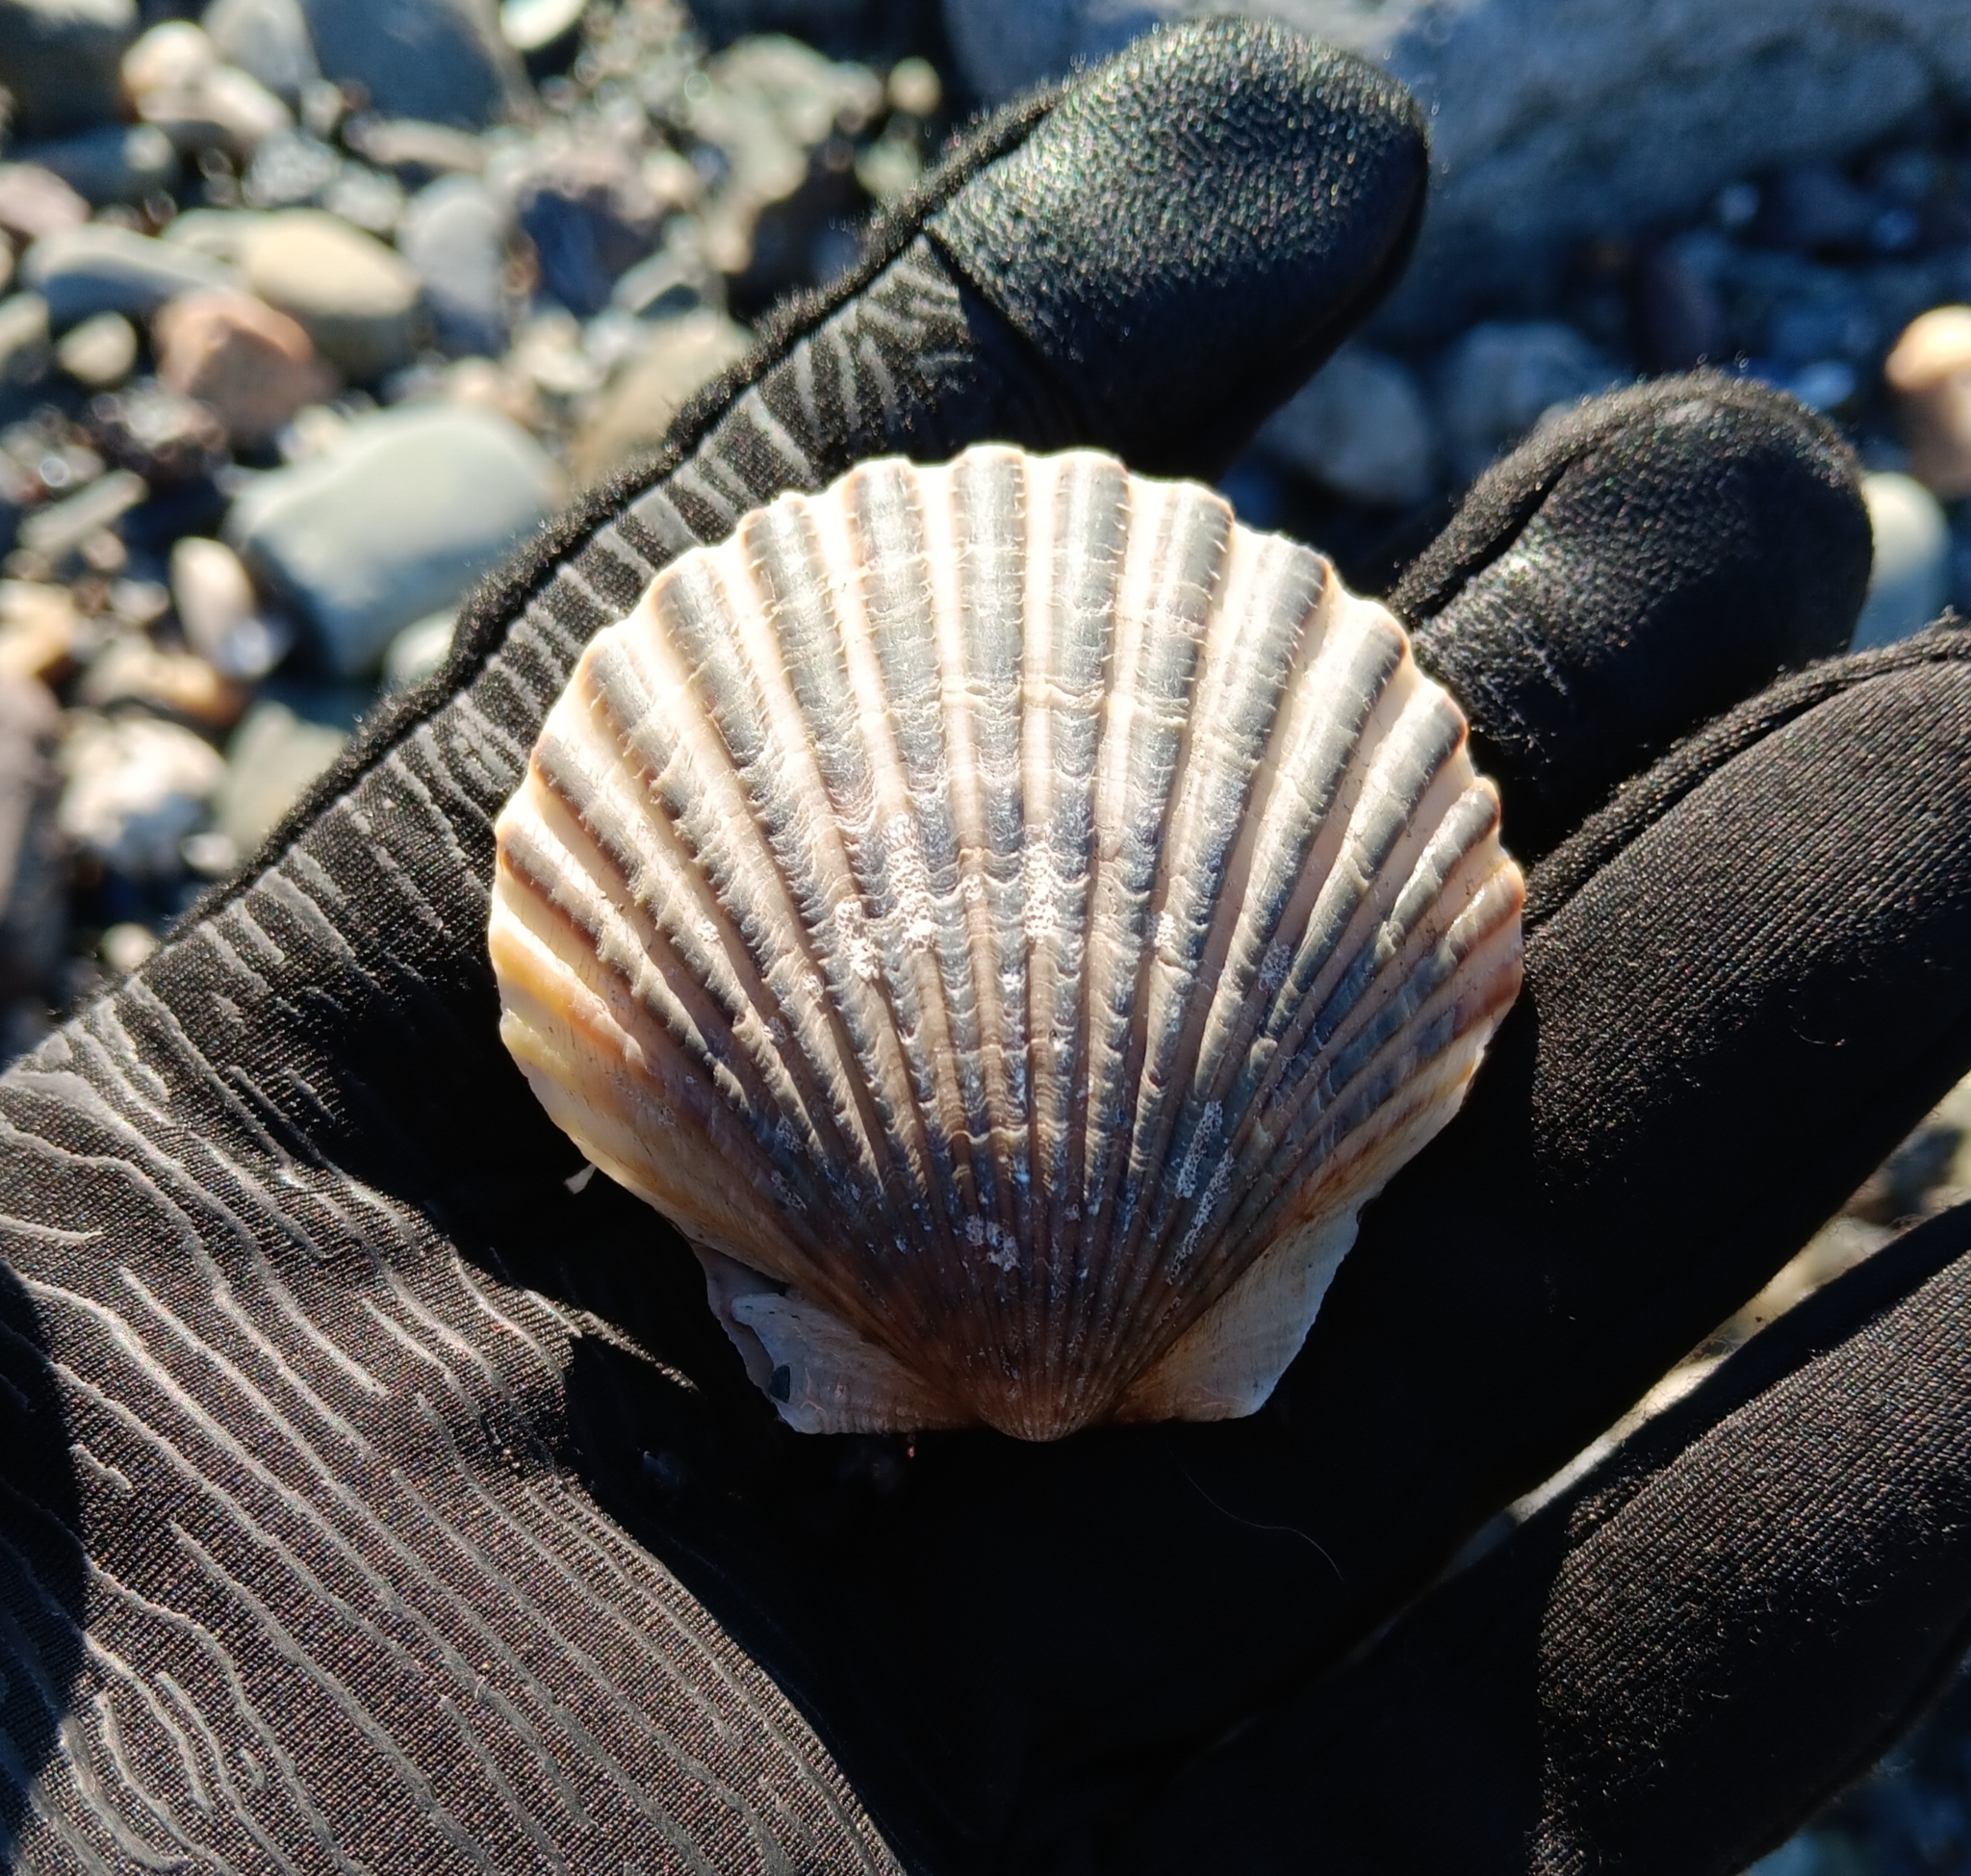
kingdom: Animalia
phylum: Mollusca
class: Bivalvia
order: Pectinida
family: Pectinidae
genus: Argopecten
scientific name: Argopecten irradians
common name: Atlantic bay scallop
